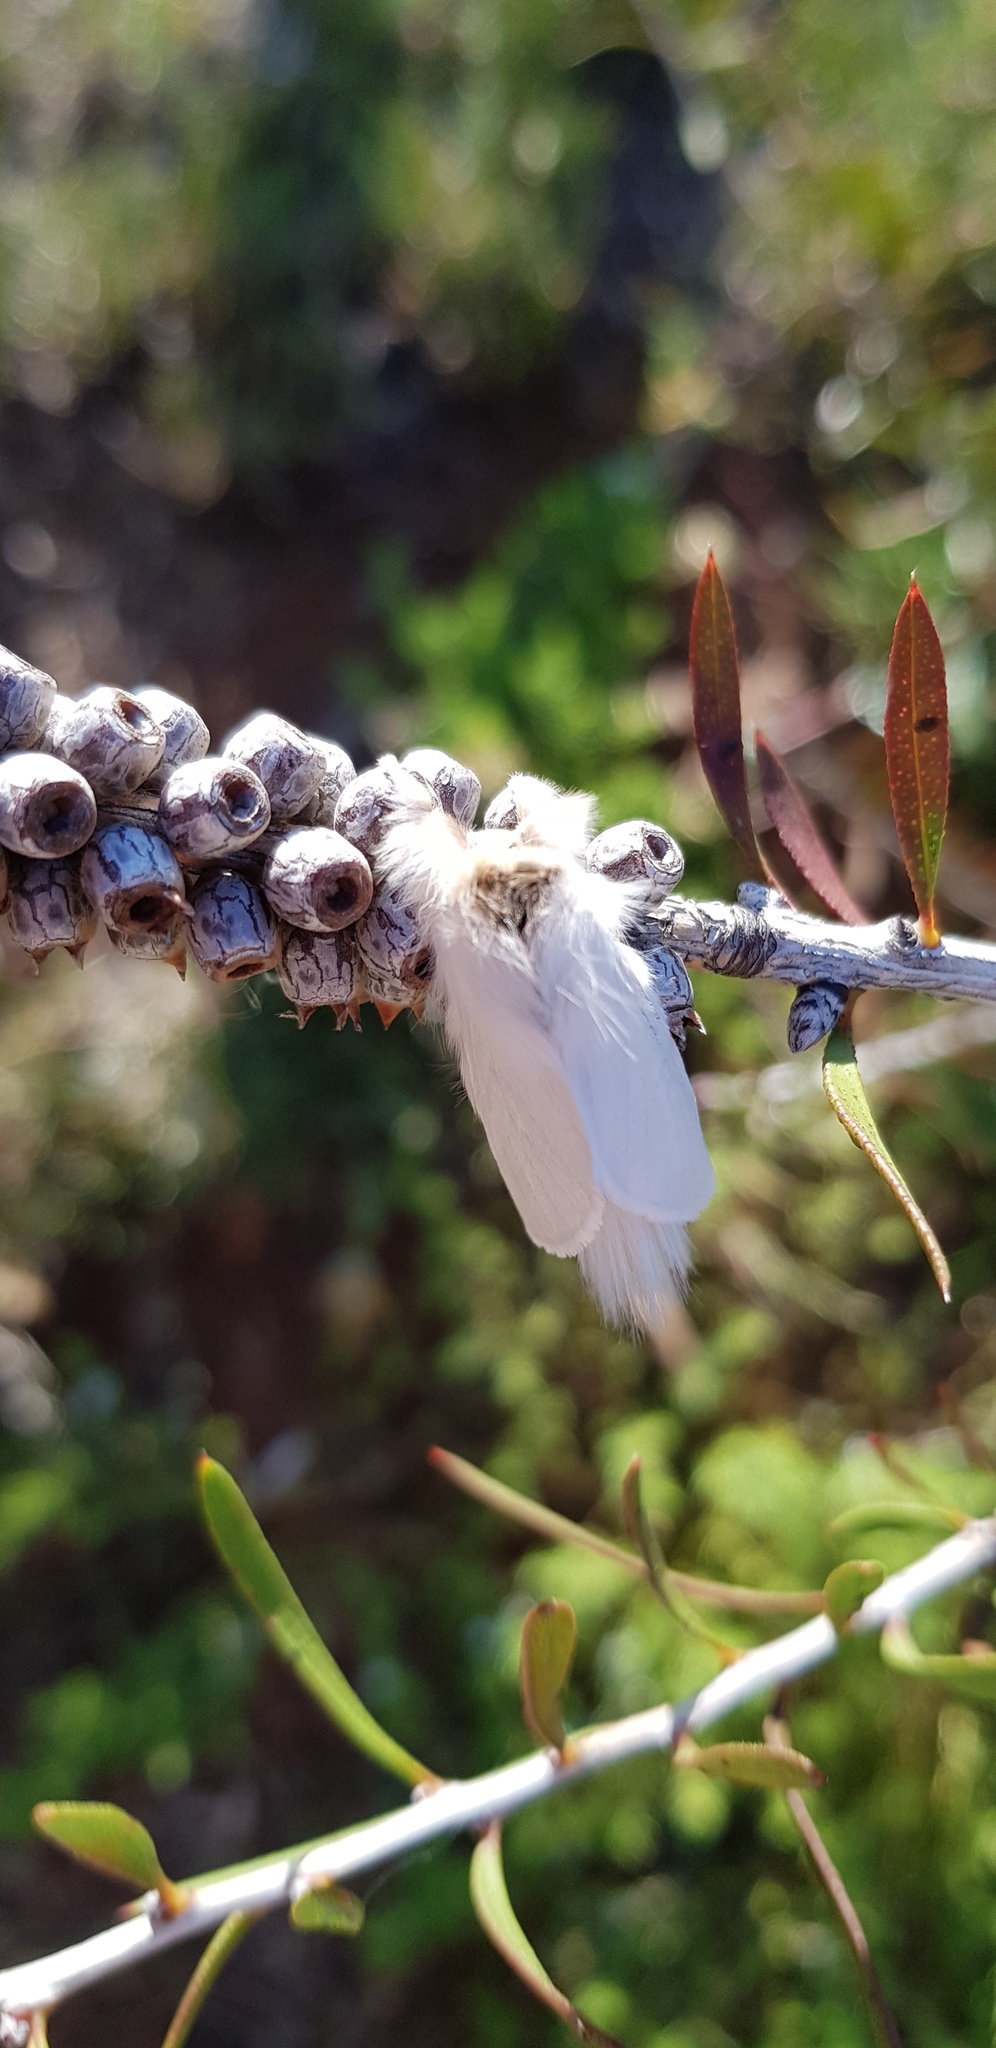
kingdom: Animalia
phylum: Arthropoda
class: Insecta
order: Lepidoptera
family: Notodontidae
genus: Trichiocercus
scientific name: Trichiocercus sparshalli
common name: Long-tailed satin
